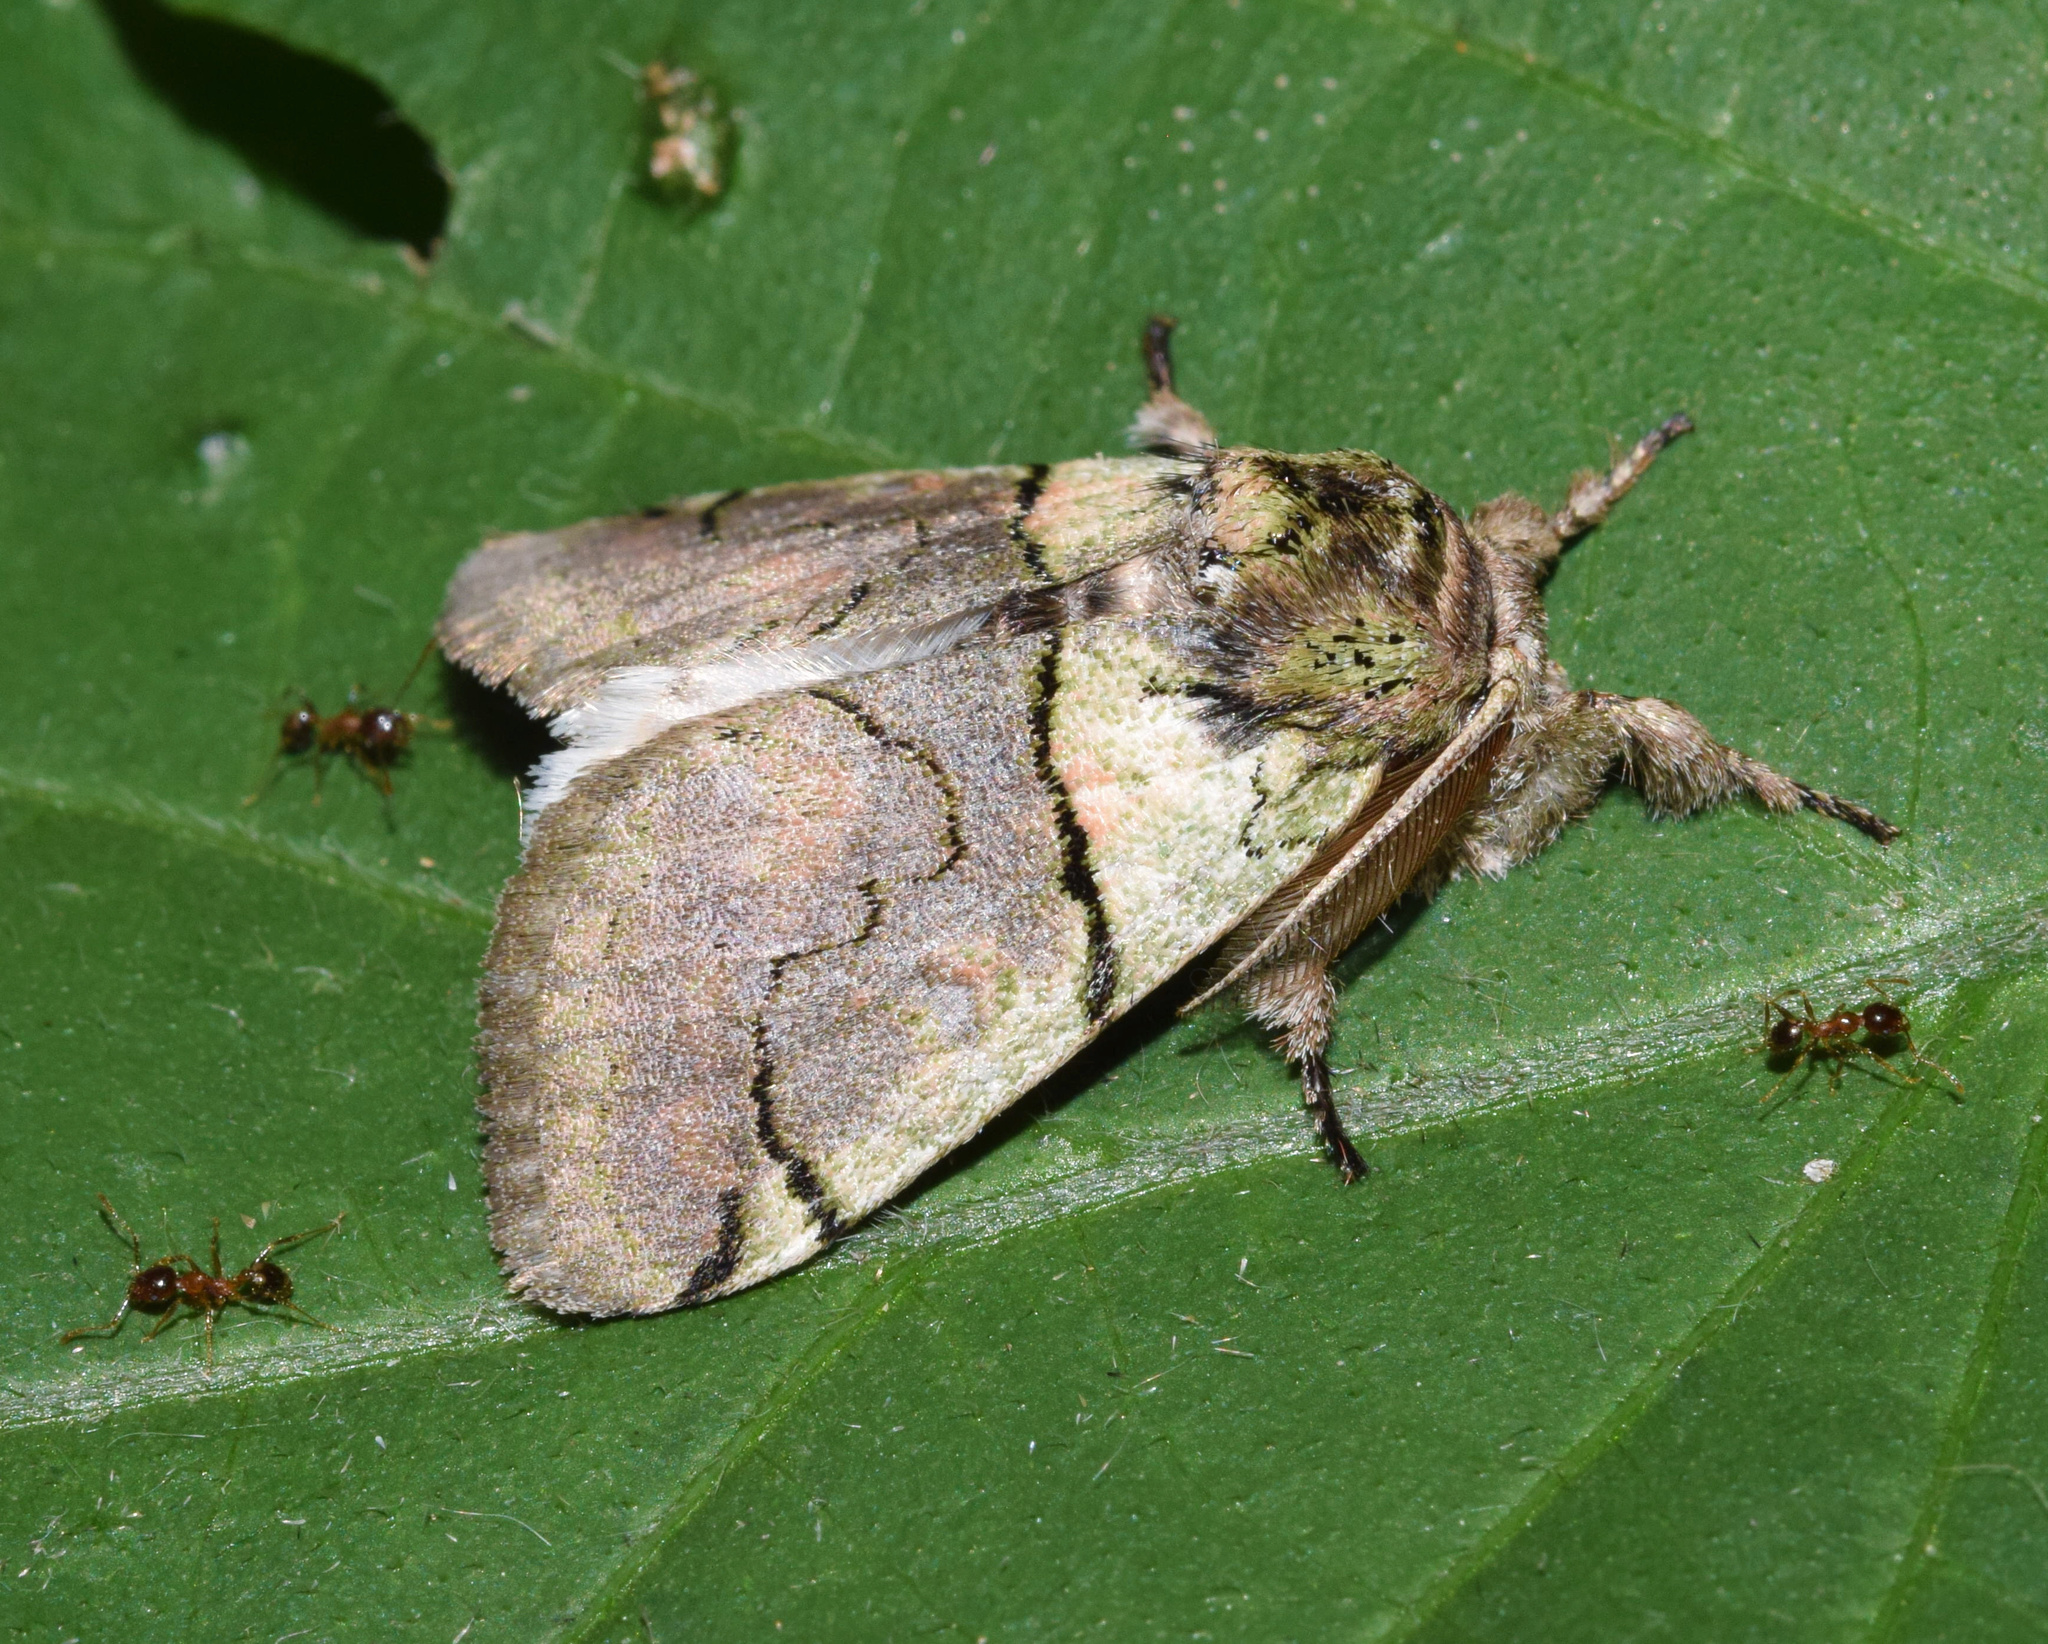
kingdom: Animalia
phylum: Arthropoda
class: Insecta
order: Lepidoptera
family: Erebidae
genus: Dasychira
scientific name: Dasychira rocana
